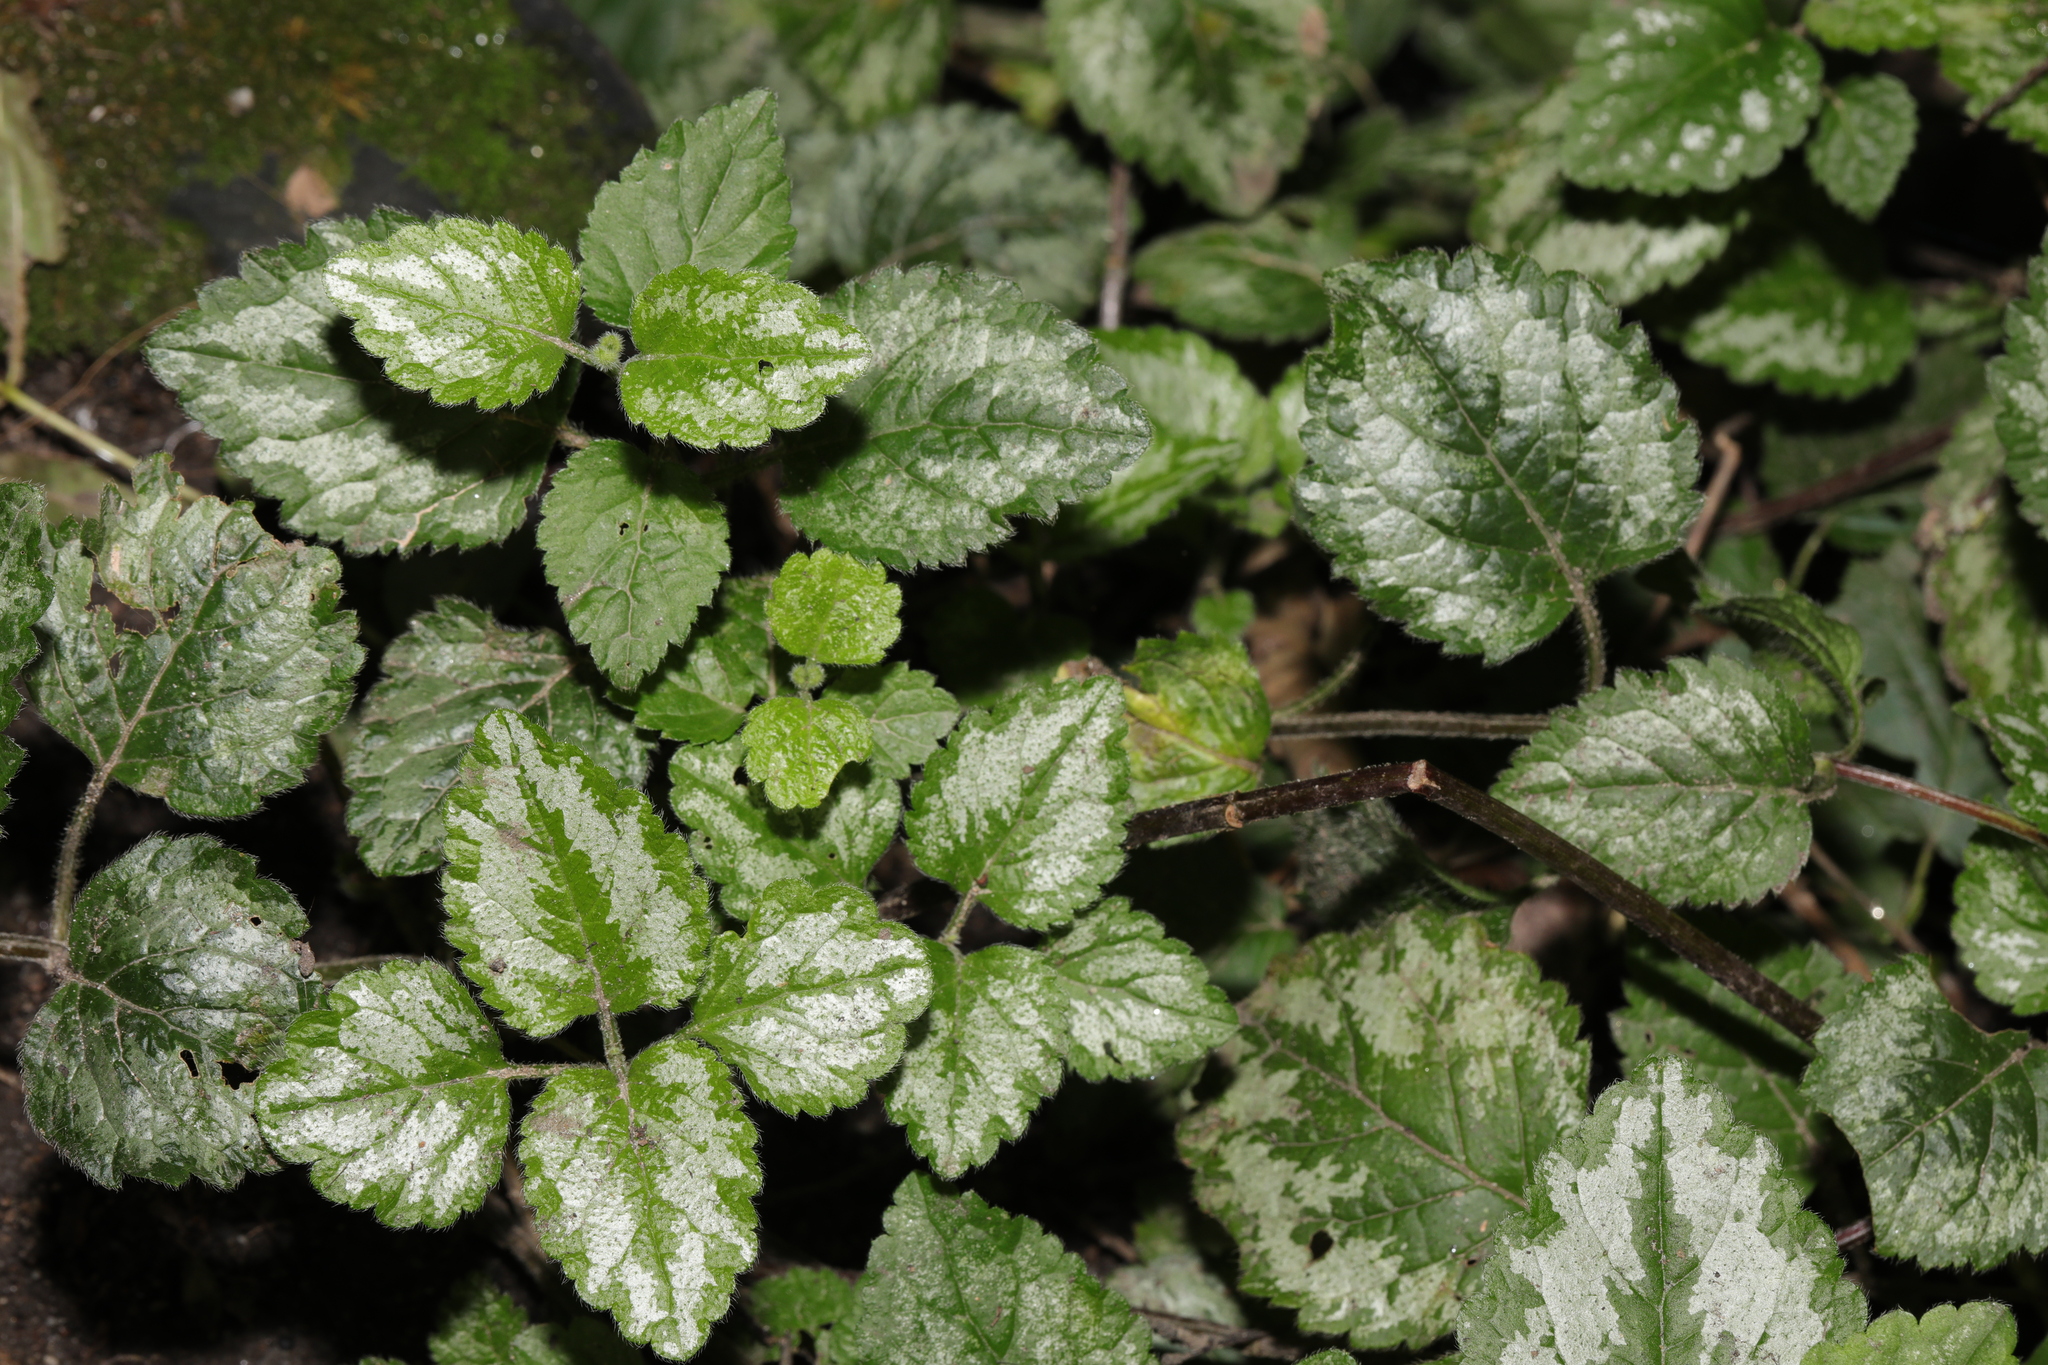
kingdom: Plantae
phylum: Tracheophyta
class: Magnoliopsida
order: Lamiales
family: Lamiaceae
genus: Lamium
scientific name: Lamium galeobdolon
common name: Yellow archangel
